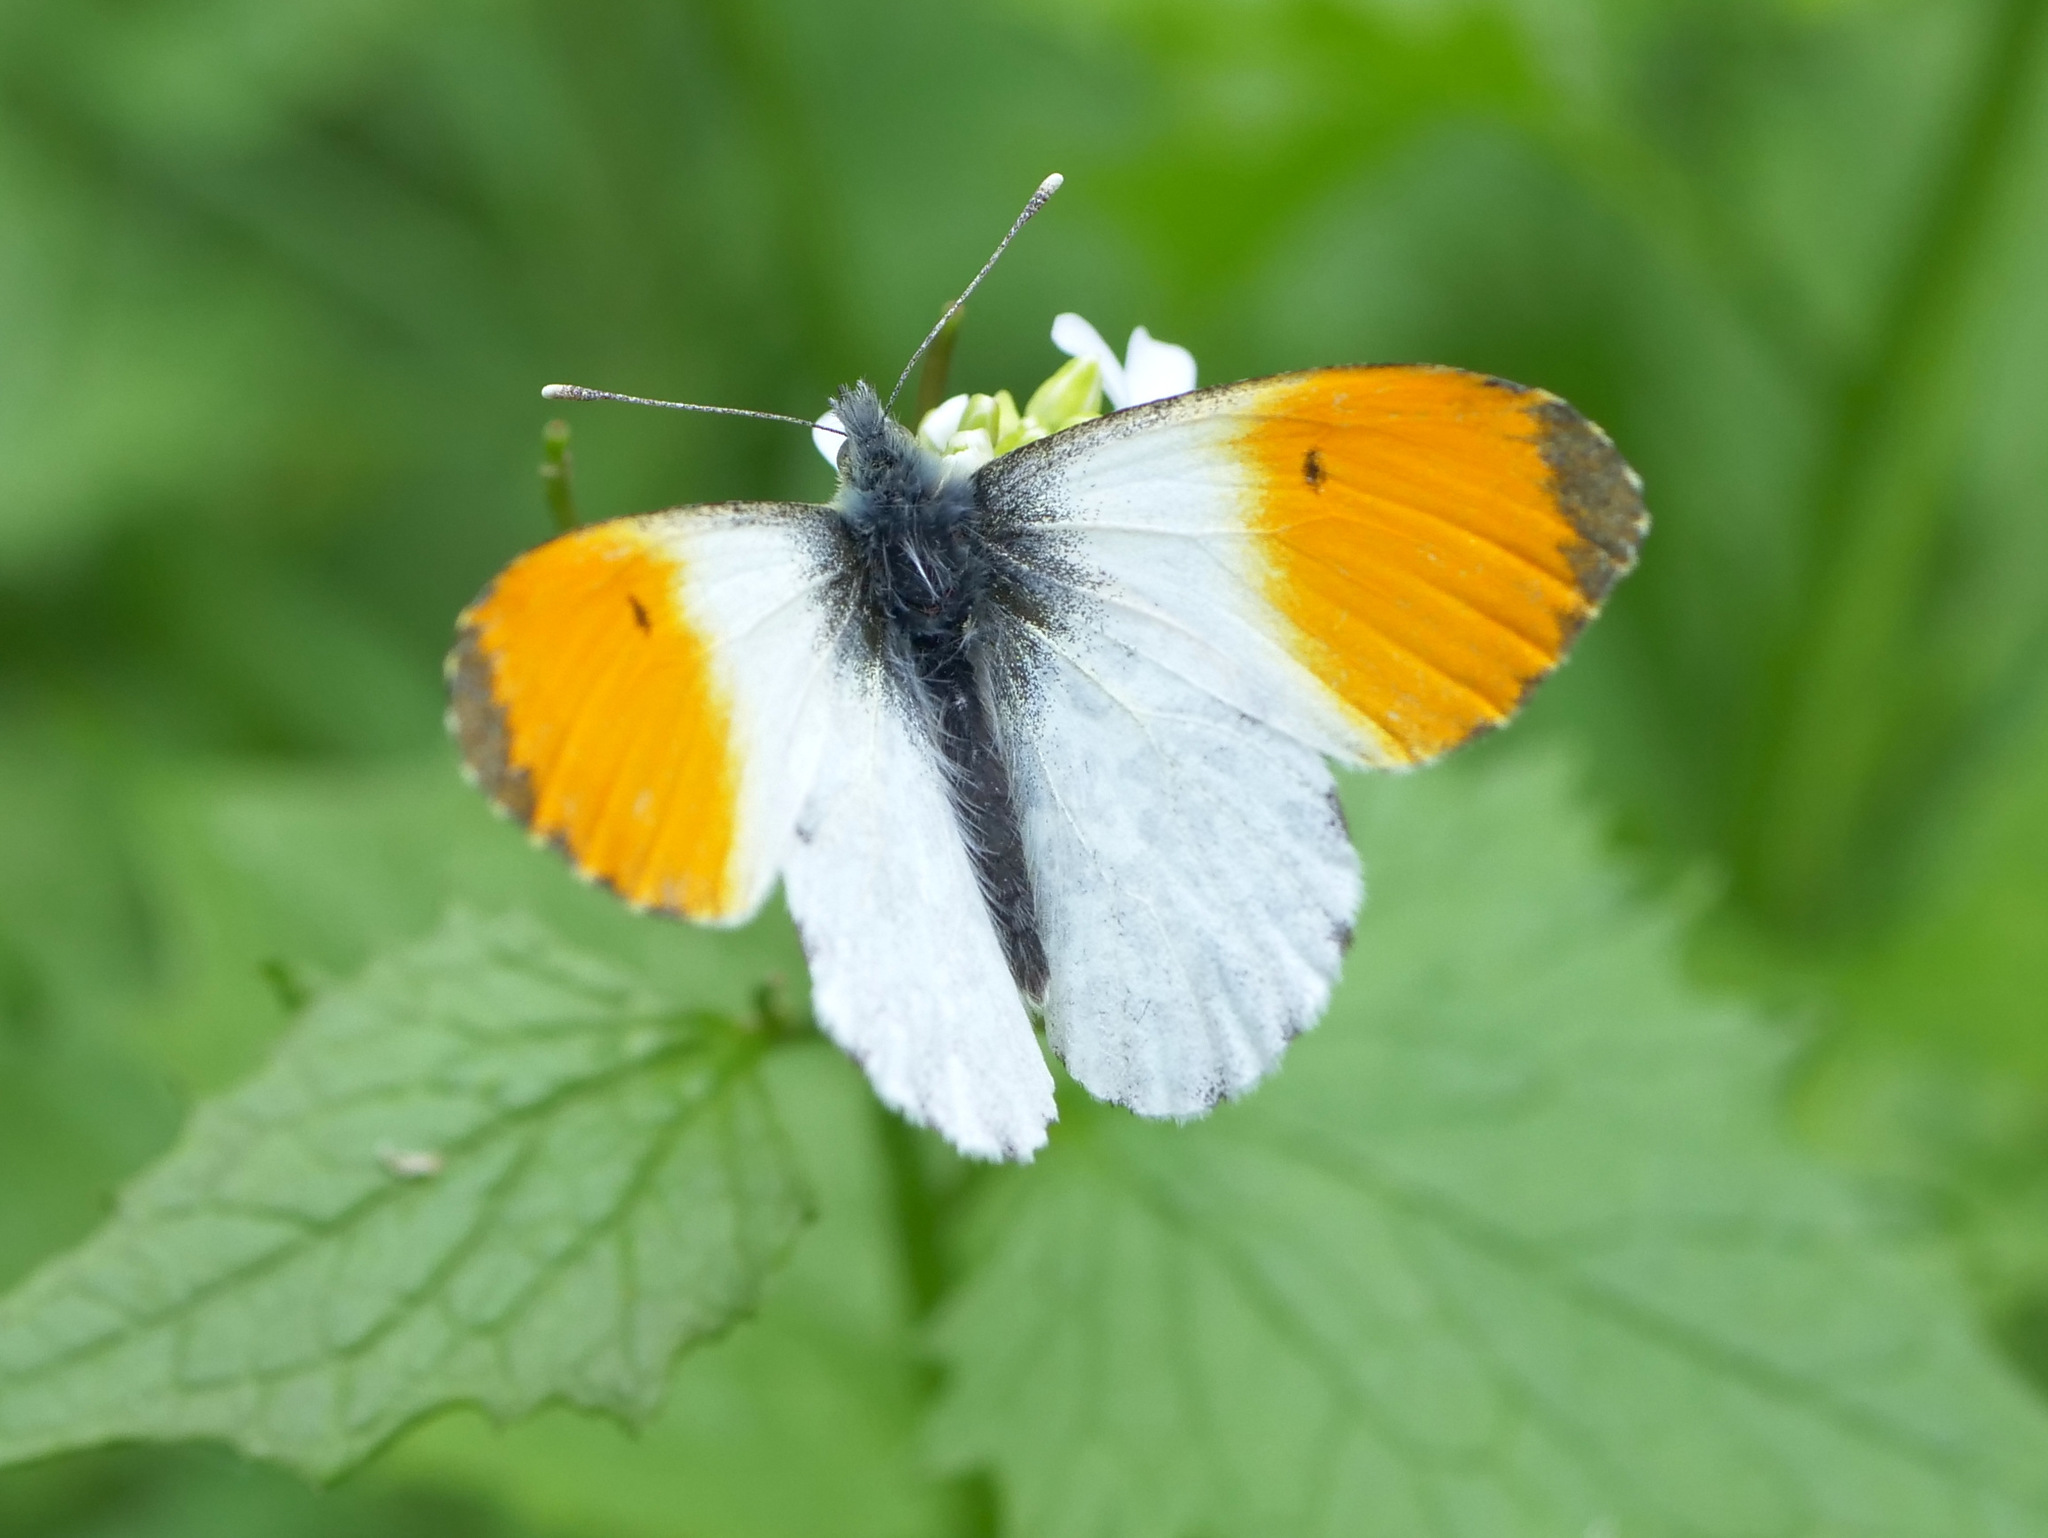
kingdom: Animalia
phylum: Arthropoda
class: Insecta
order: Lepidoptera
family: Pieridae
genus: Anthocharis
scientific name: Anthocharis cardamines
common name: Orange-tip
